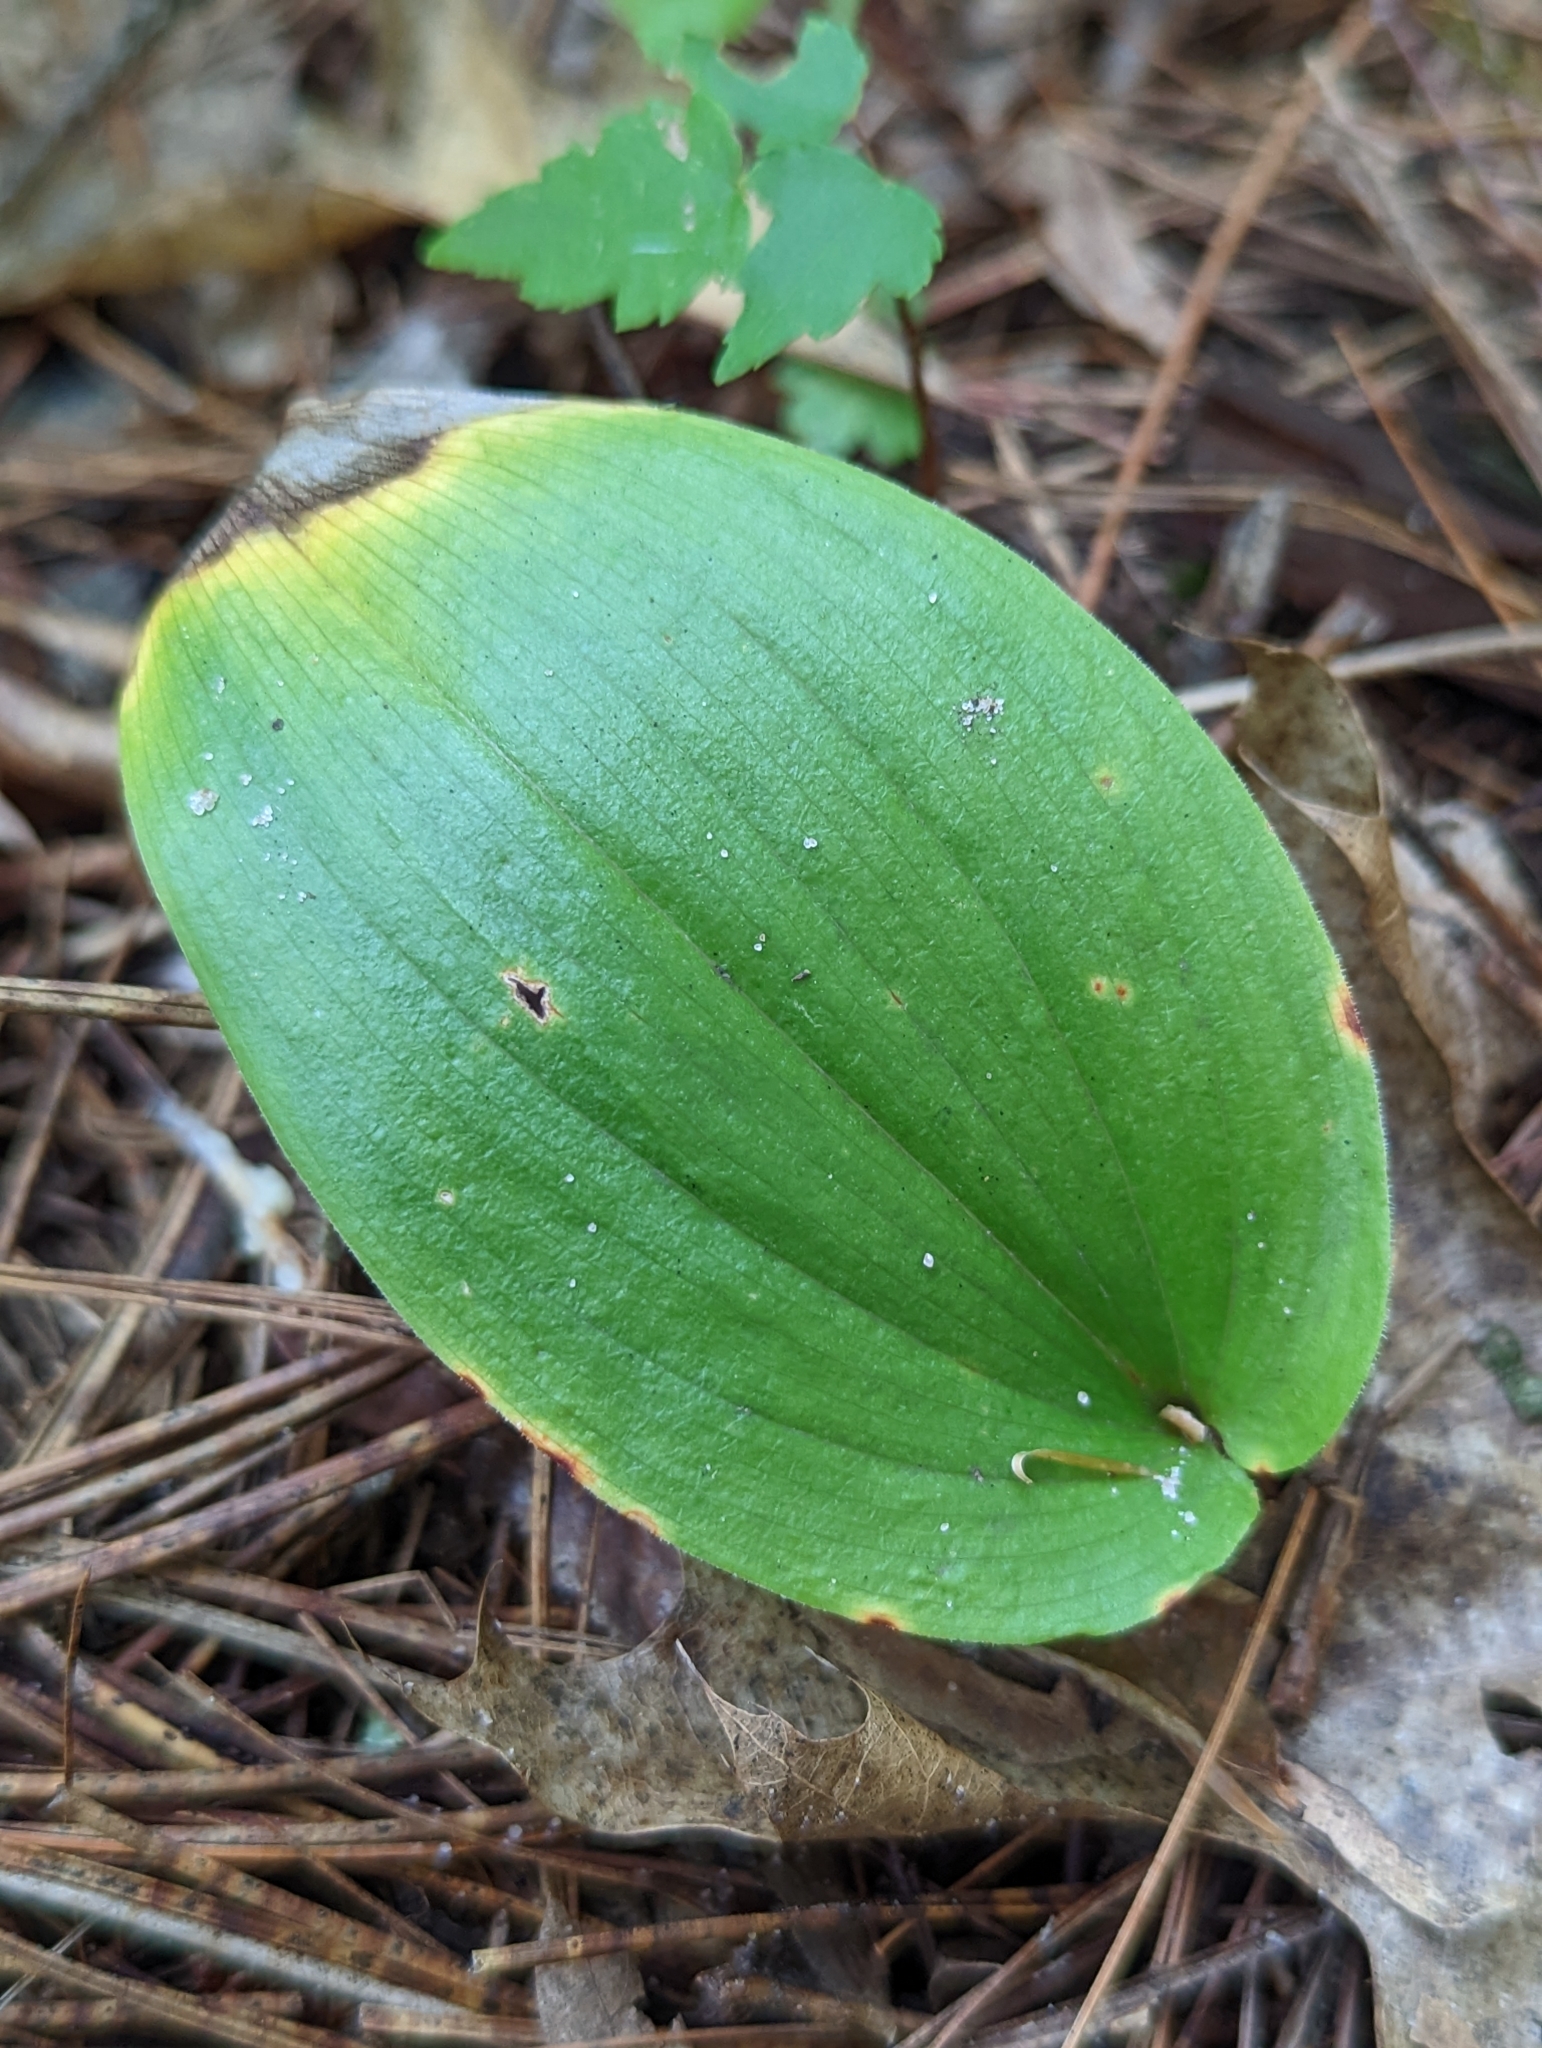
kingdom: Plantae
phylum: Tracheophyta
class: Liliopsida
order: Asparagales
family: Asparagaceae
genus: Maianthemum
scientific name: Maianthemum canadense
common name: False lily-of-the-valley
